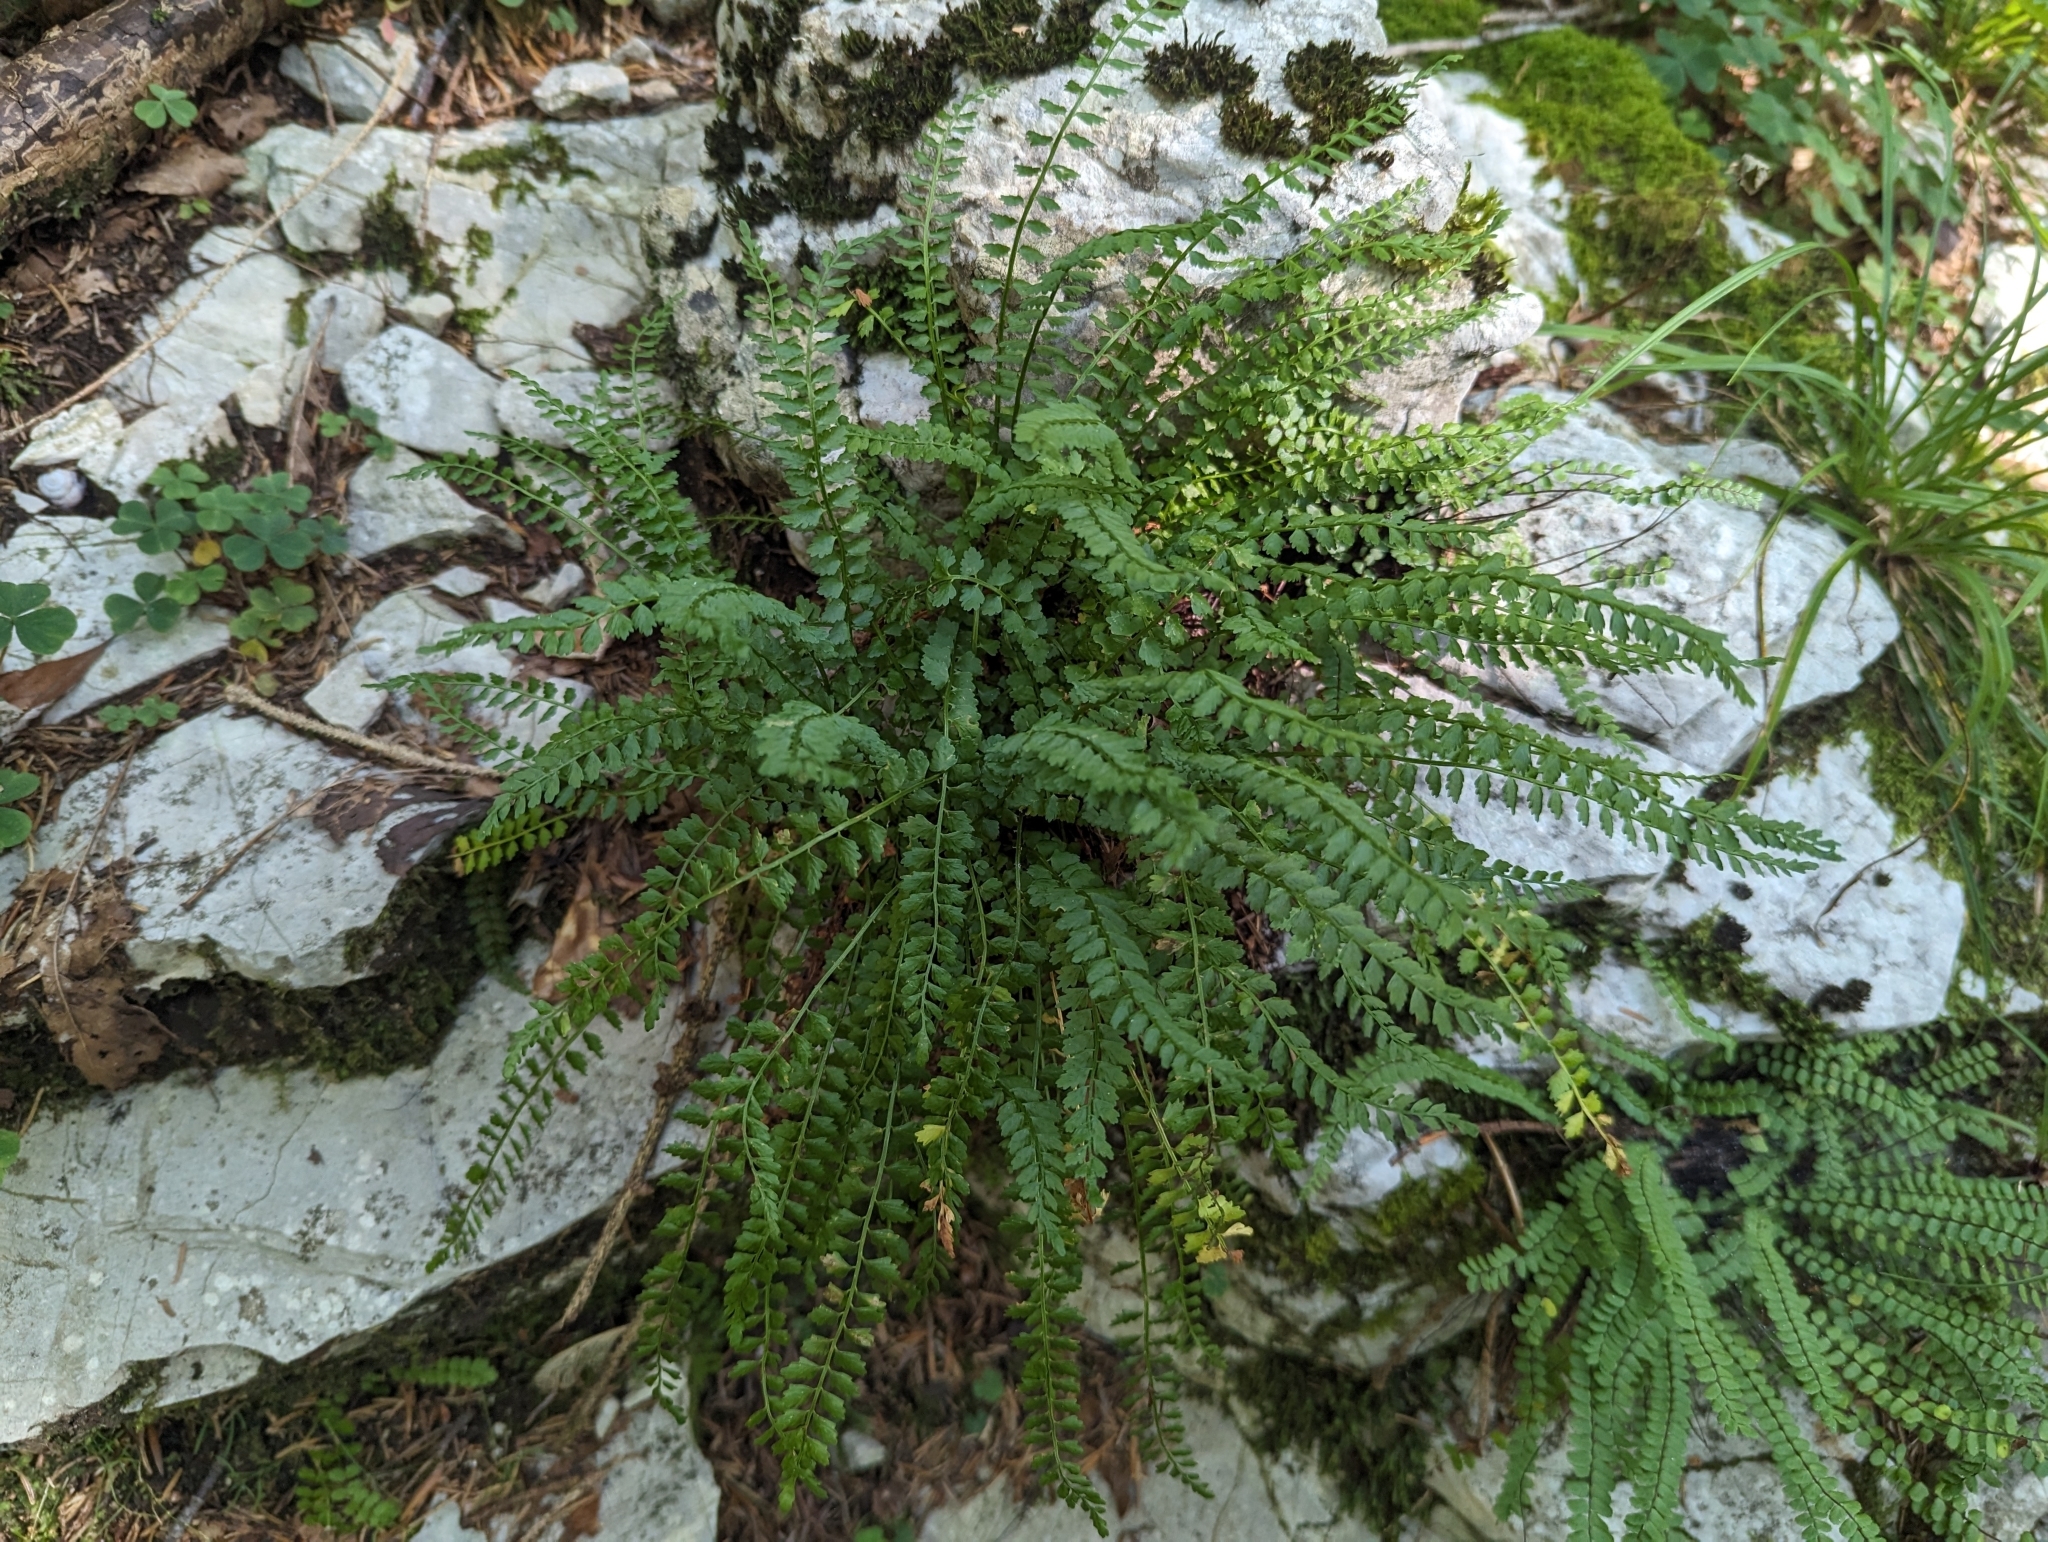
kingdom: Plantae
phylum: Tracheophyta
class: Polypodiopsida
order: Polypodiales
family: Aspleniaceae
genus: Asplenium
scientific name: Asplenium viride
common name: Green spleenwort
